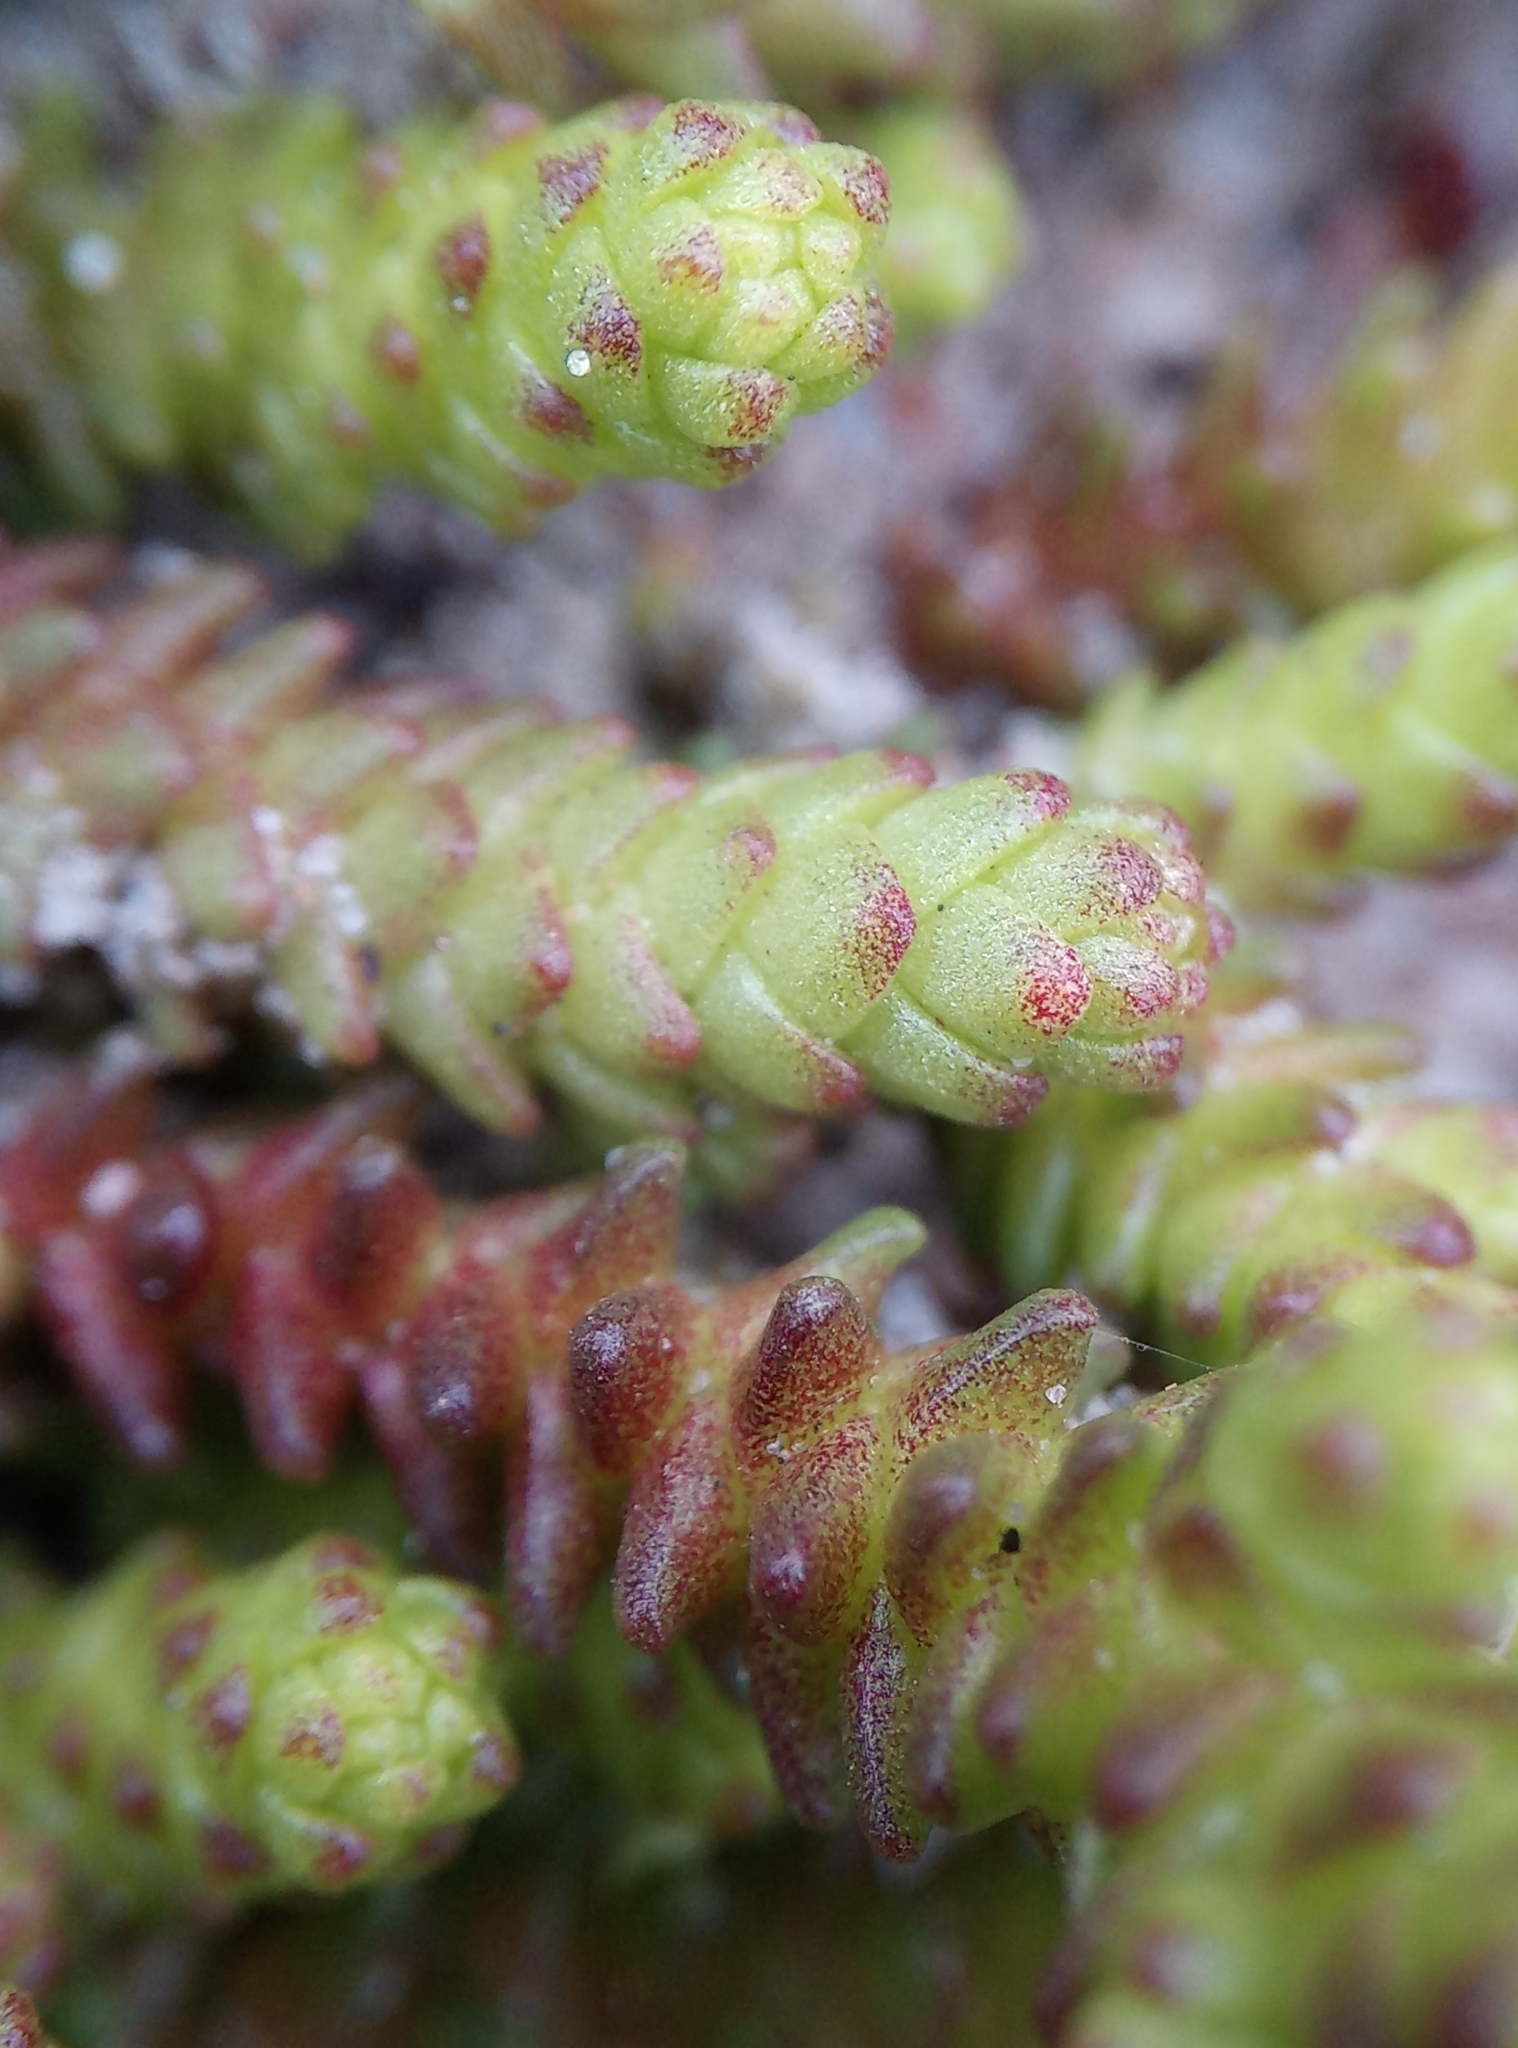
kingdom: Plantae
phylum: Tracheophyta
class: Magnoliopsida
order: Saxifragales
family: Crassulaceae
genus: Sedum
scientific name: Sedum acre
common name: Biting stonecrop
